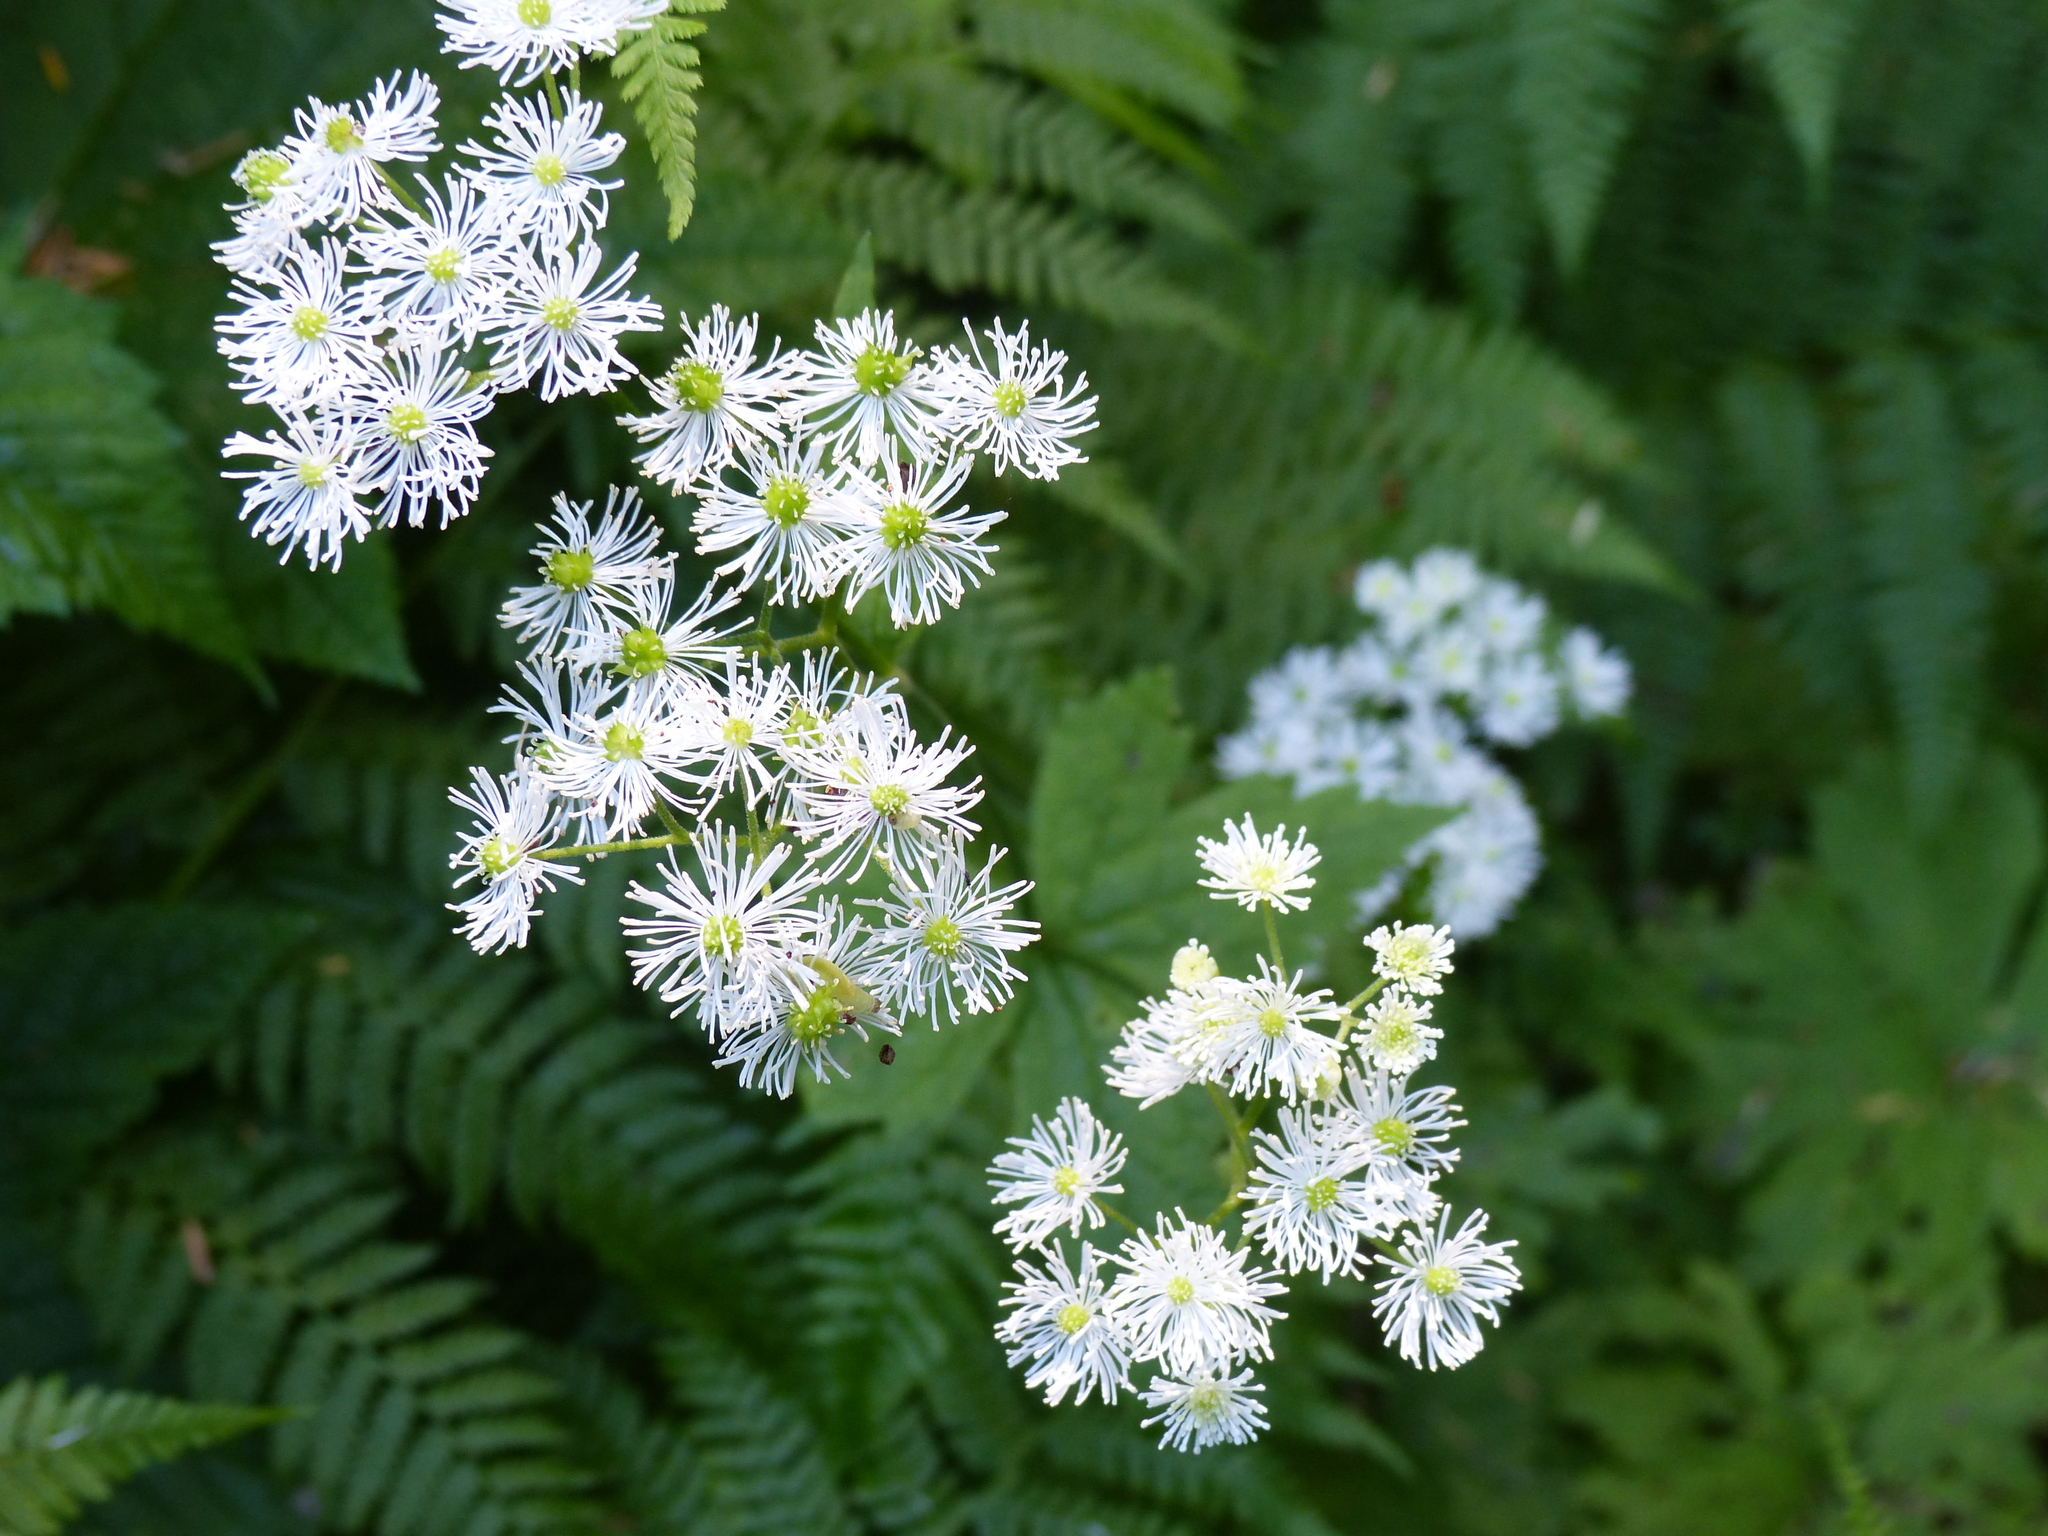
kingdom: Plantae
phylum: Tracheophyta
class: Magnoliopsida
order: Ranunculales
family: Ranunculaceae
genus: Trautvetteria
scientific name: Trautvetteria carolinensis
